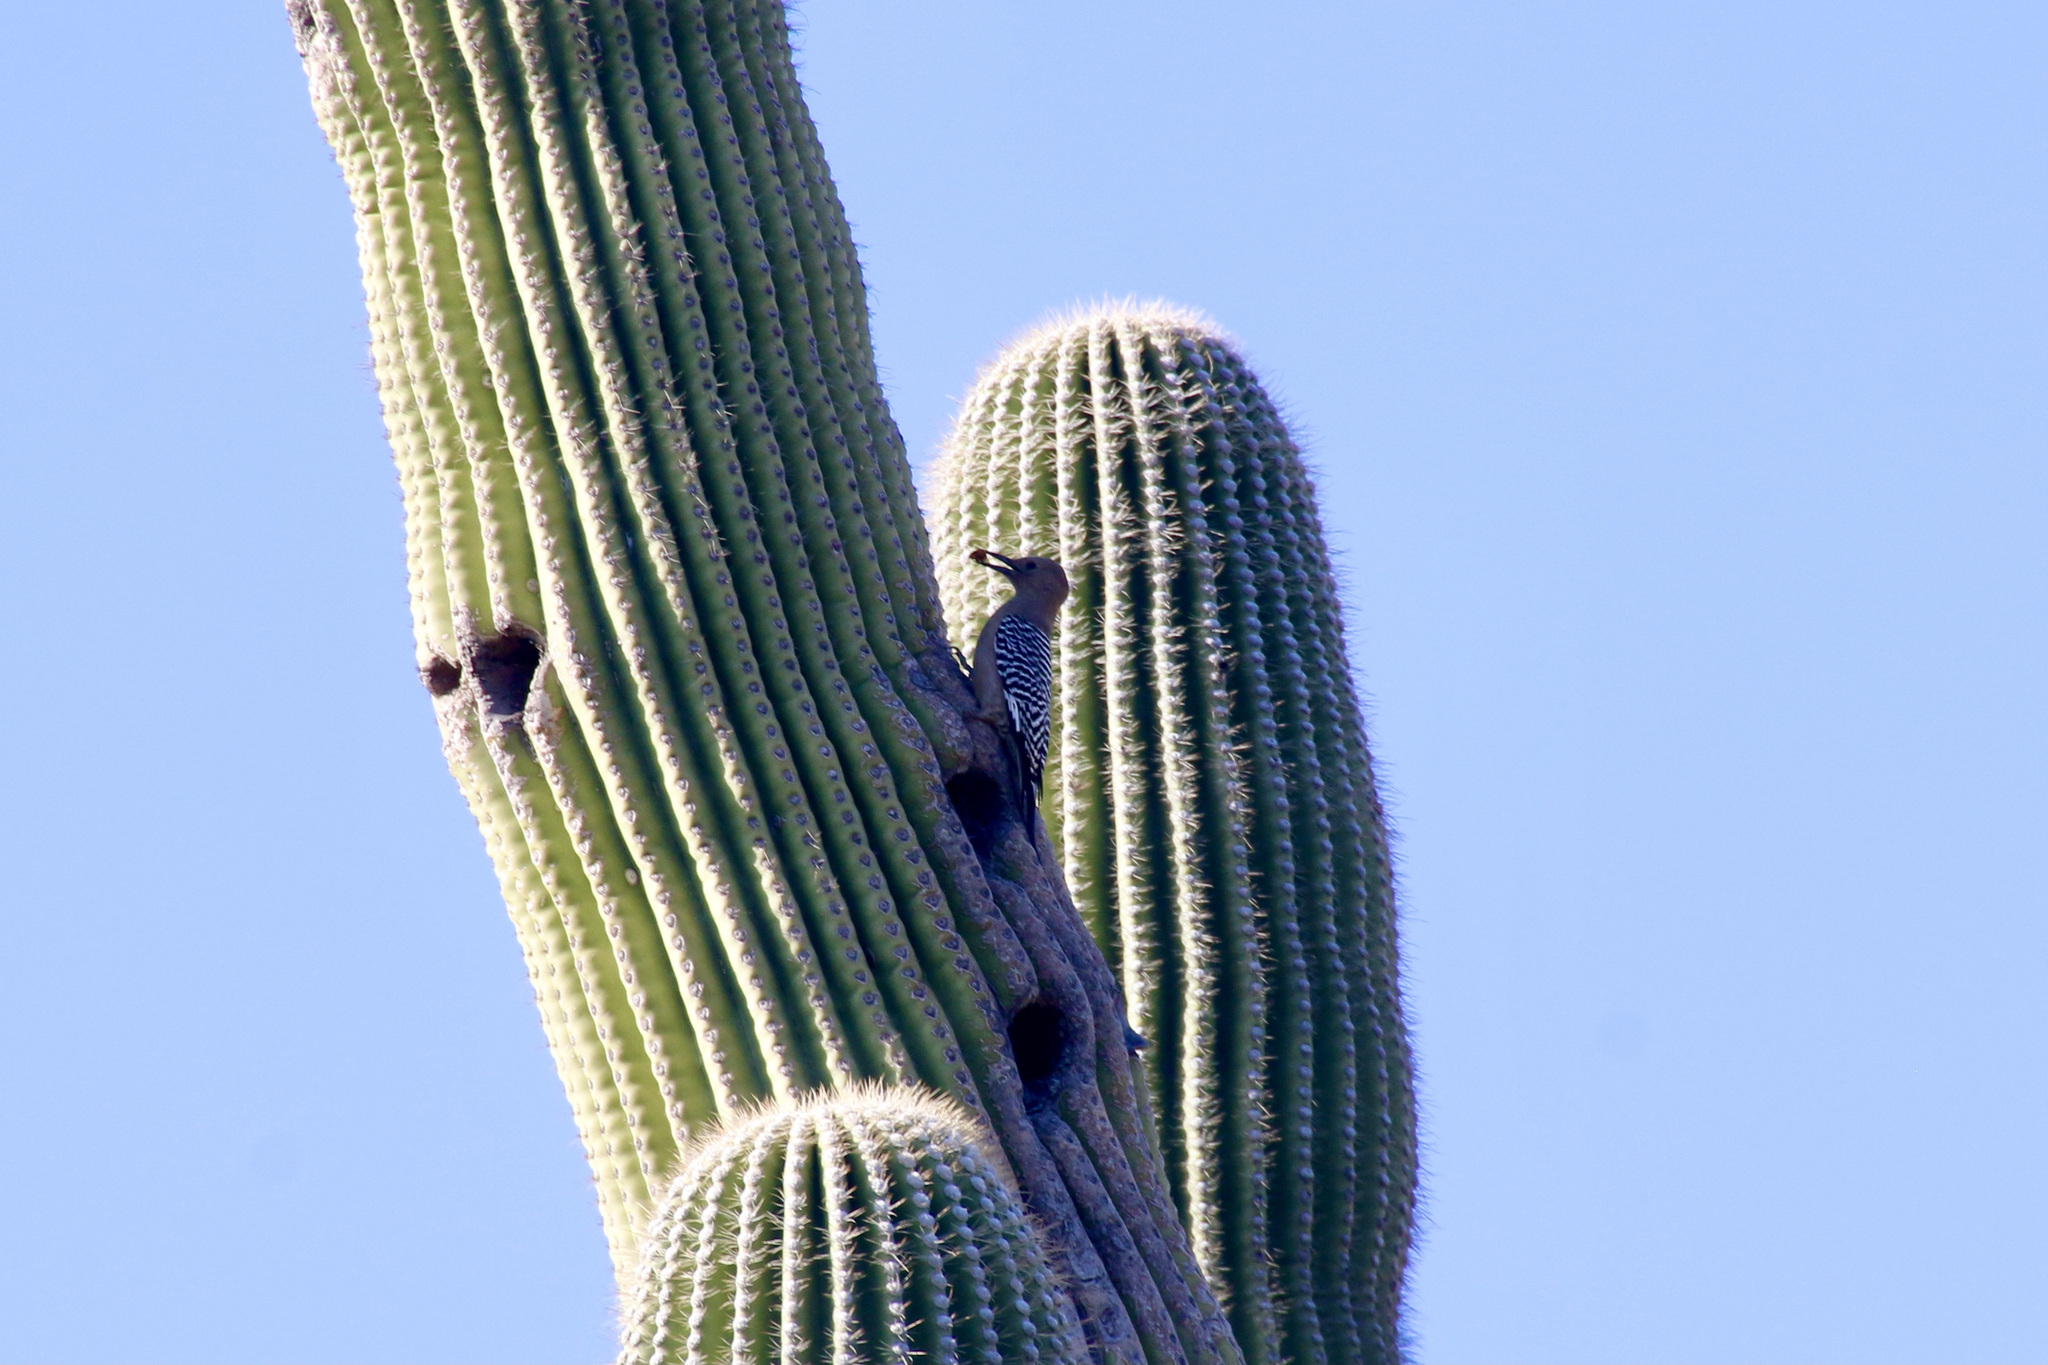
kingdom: Animalia
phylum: Chordata
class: Aves
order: Piciformes
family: Picidae
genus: Melanerpes
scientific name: Melanerpes uropygialis
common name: Gila woodpecker
